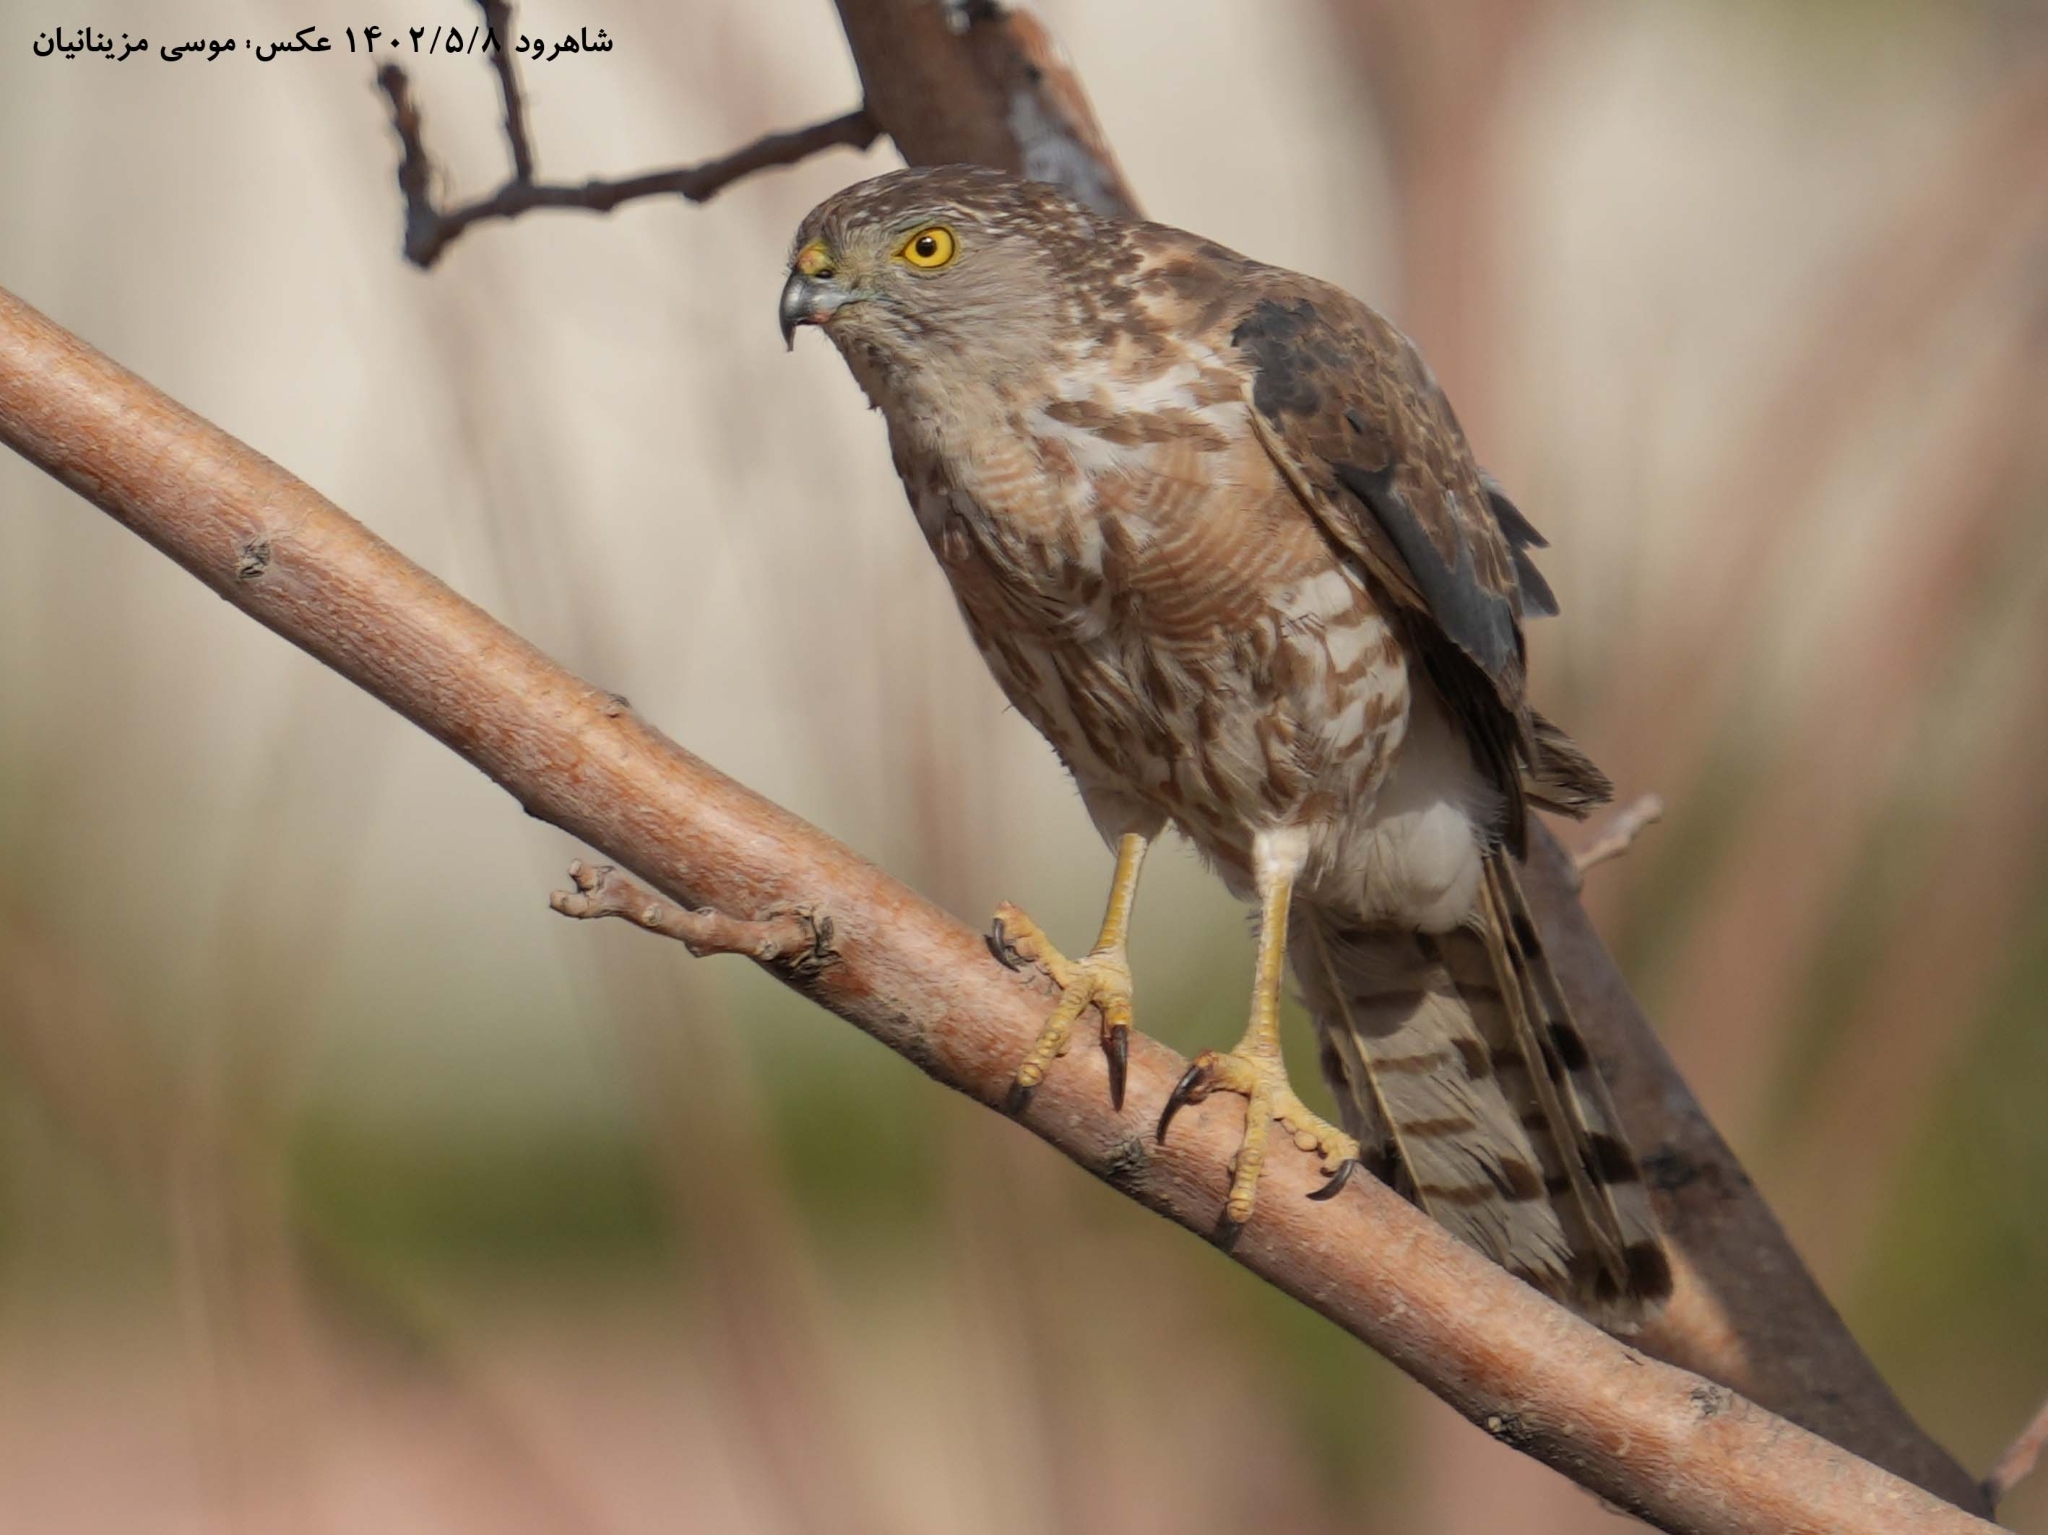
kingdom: Animalia
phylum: Chordata
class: Aves
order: Accipitriformes
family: Accipitridae
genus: Accipiter
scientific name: Accipiter badius
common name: Shikra
